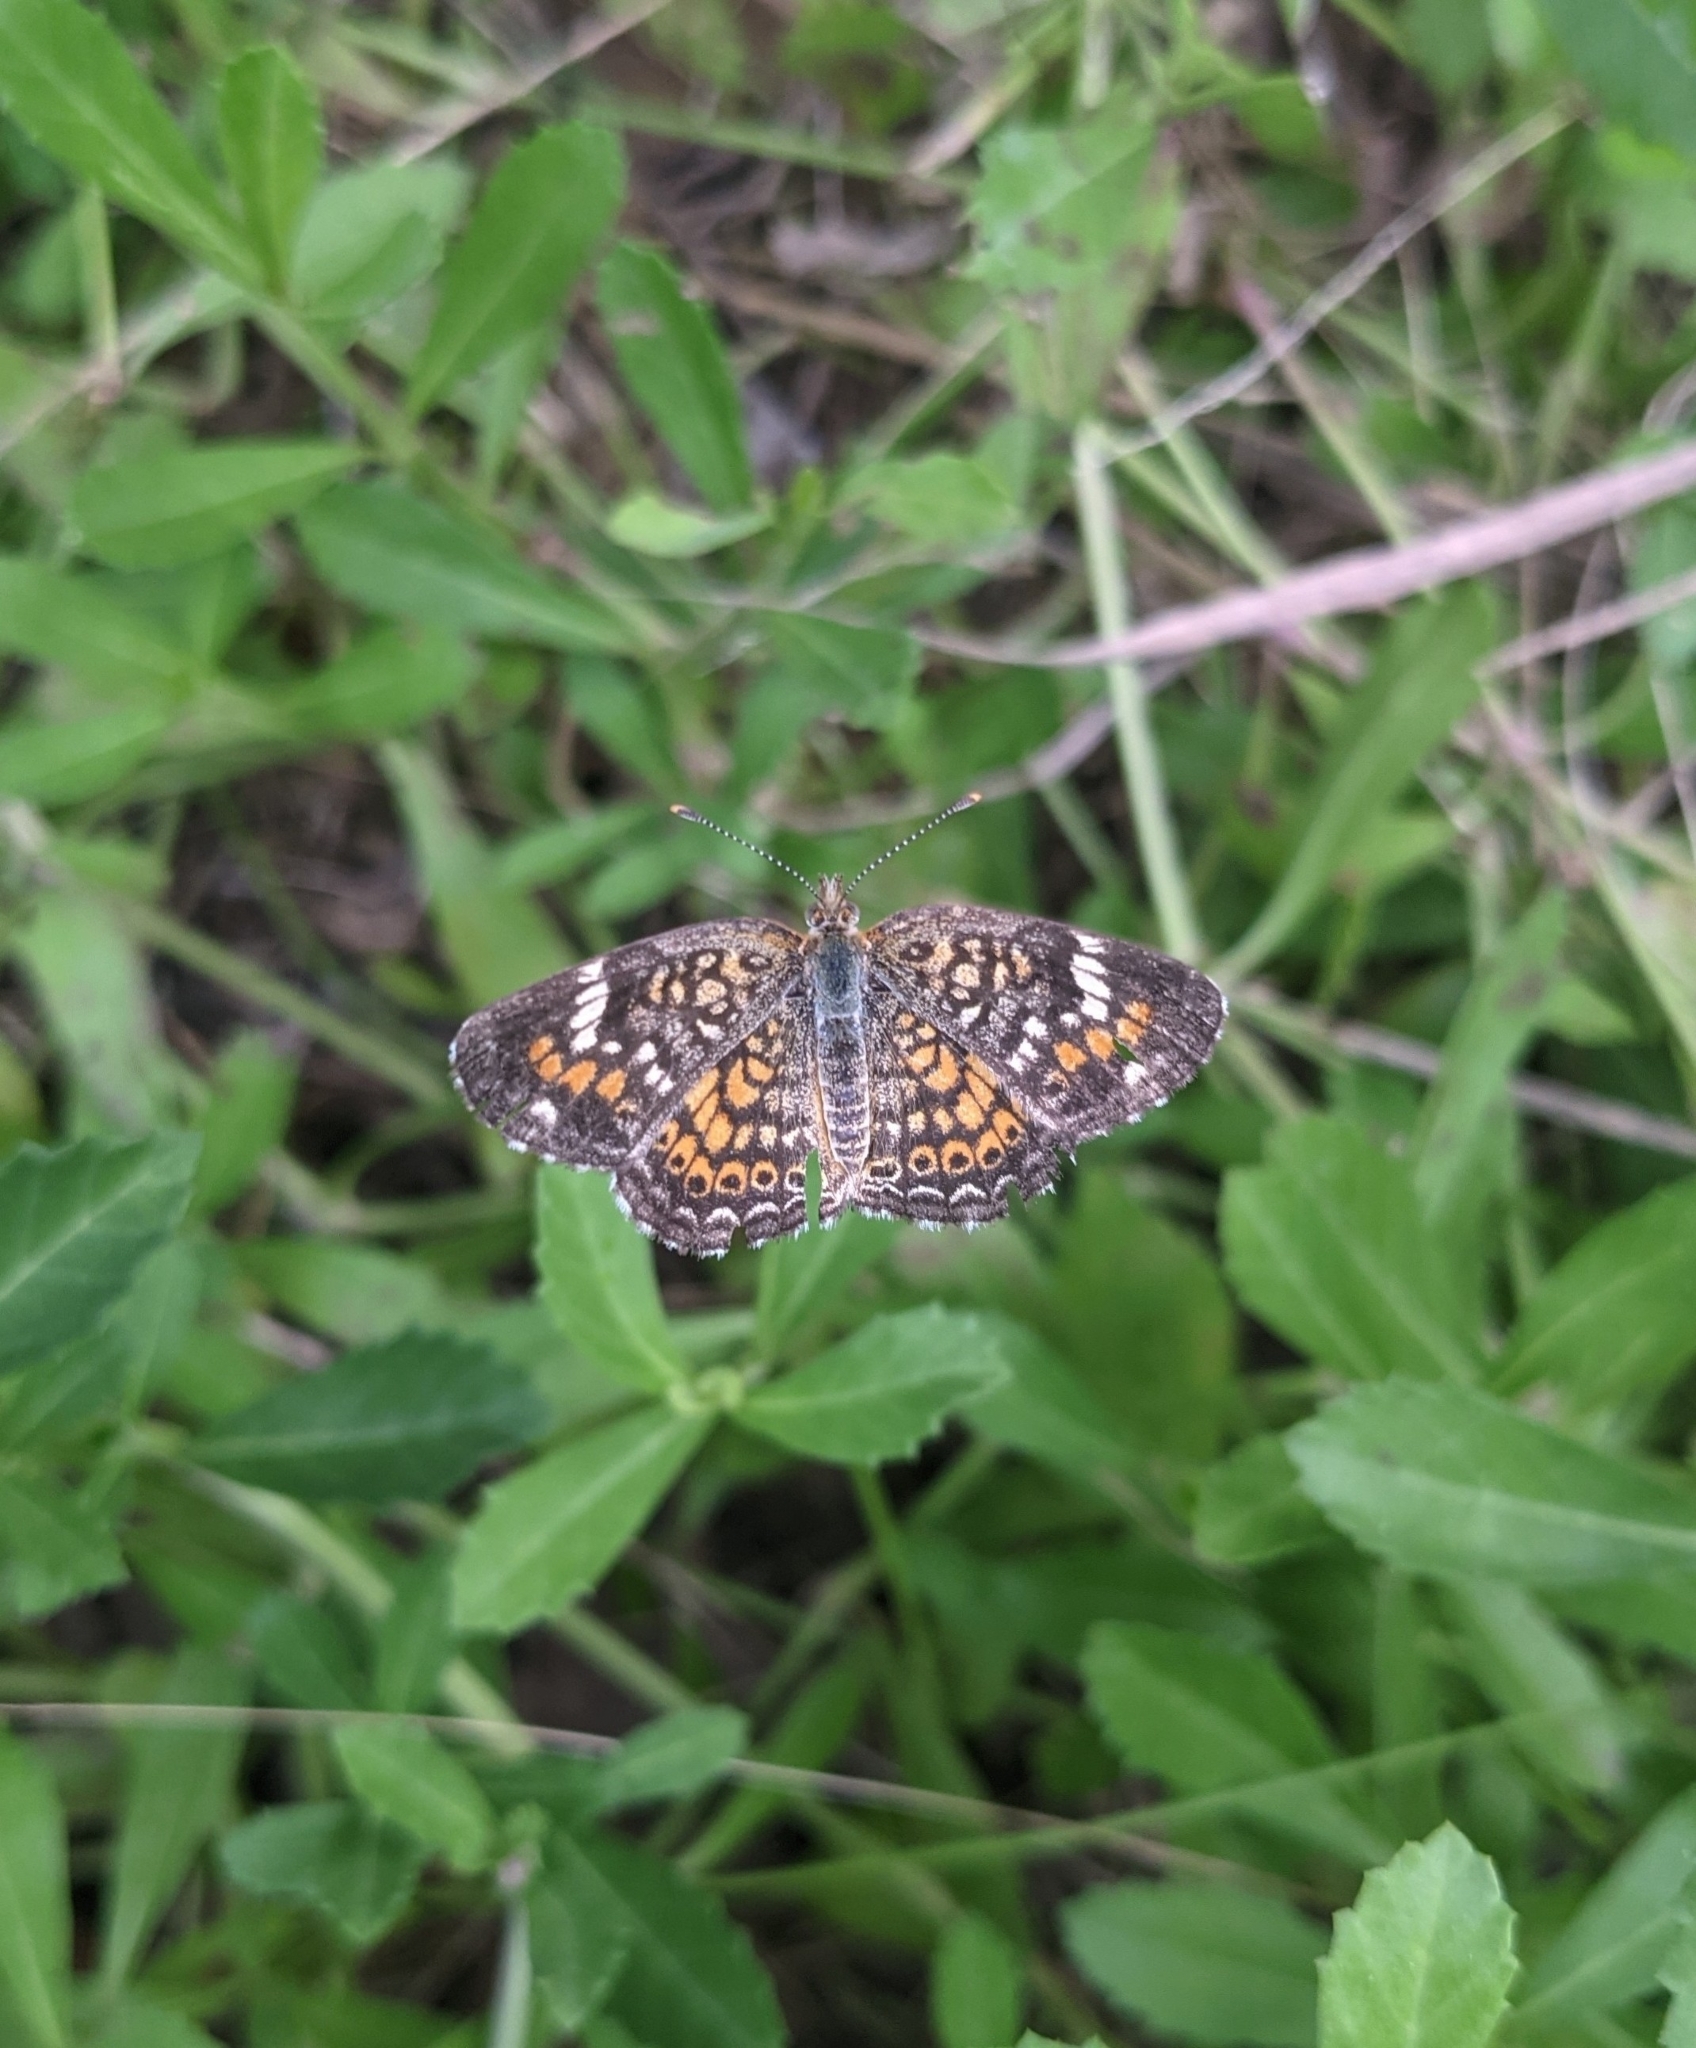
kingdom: Animalia
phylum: Arthropoda
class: Insecta
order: Lepidoptera
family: Nymphalidae
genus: Phyciodes
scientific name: Phyciodes phaon
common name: Phaon crescent
